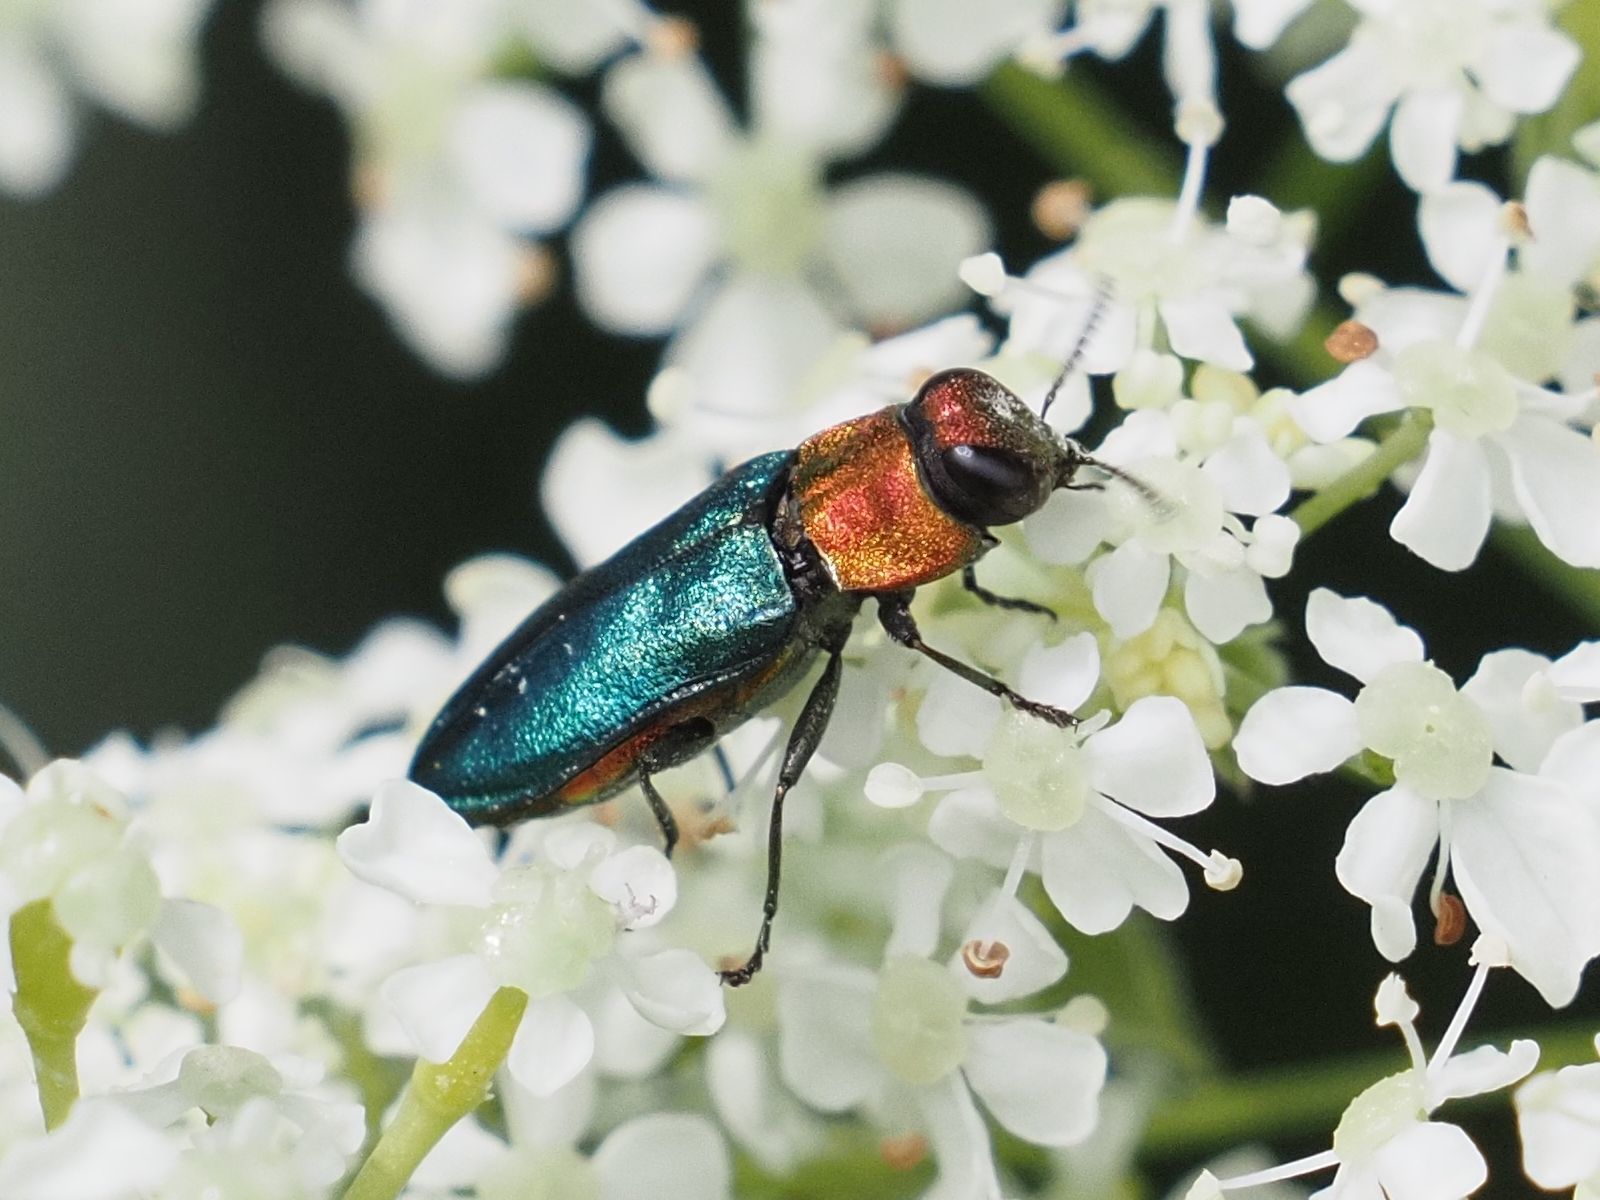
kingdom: Animalia
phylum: Arthropoda
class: Insecta
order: Coleoptera
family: Buprestidae
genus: Anthaxia
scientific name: Anthaxia nitidula
